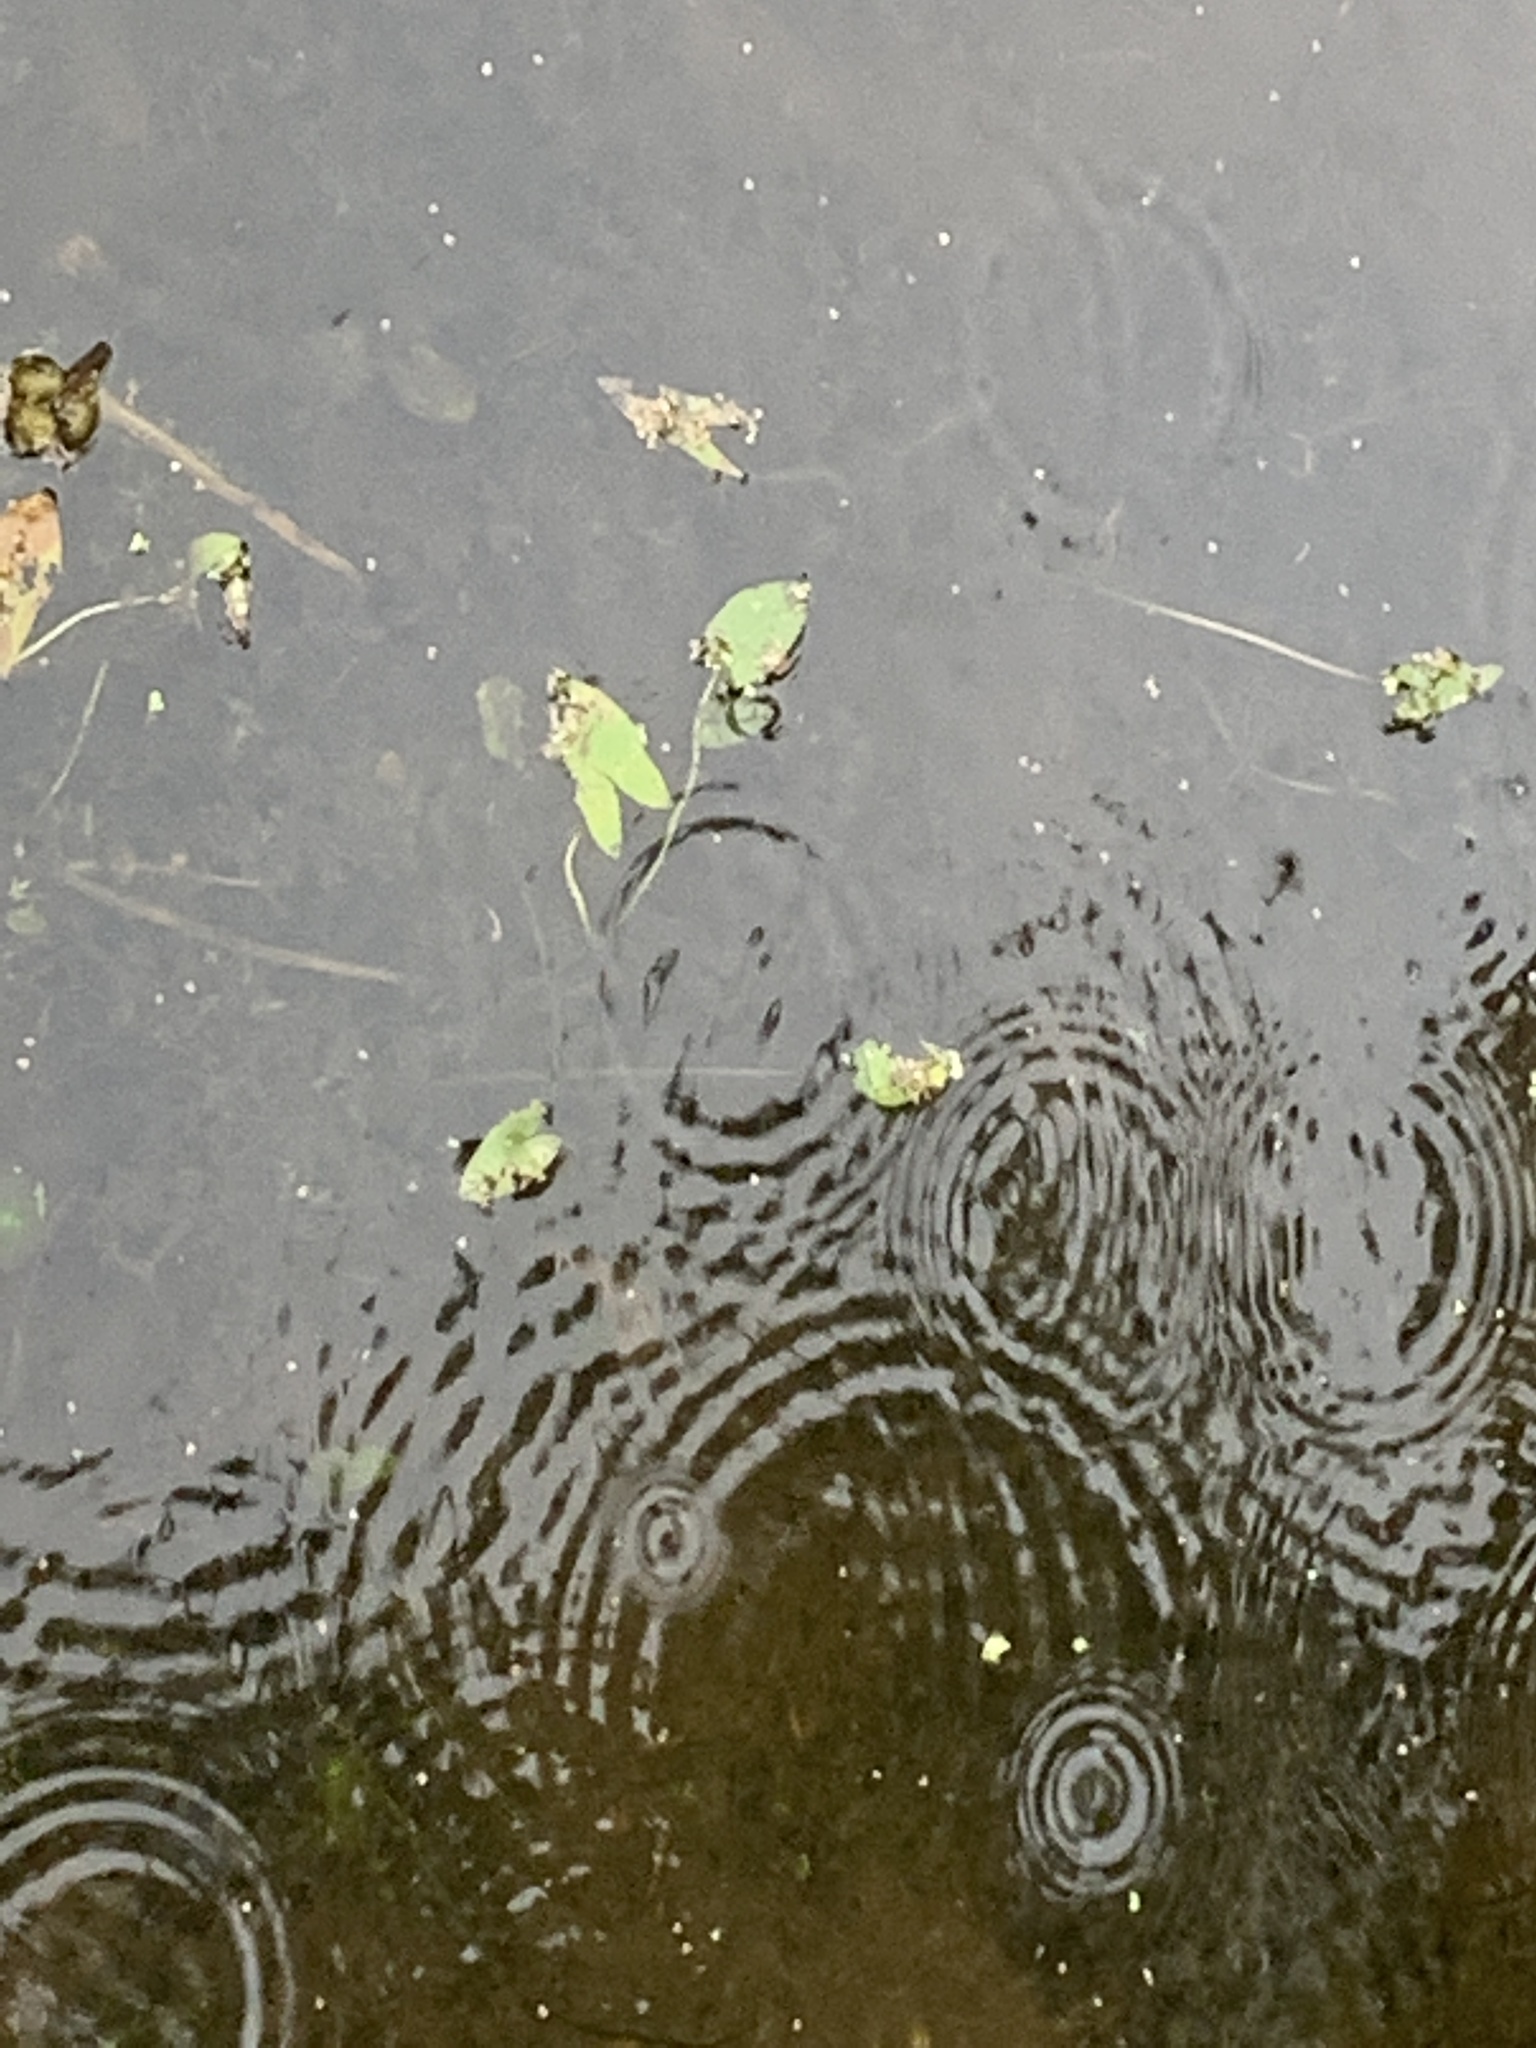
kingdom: Plantae
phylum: Tracheophyta
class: Liliopsida
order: Alismatales
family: Alismataceae
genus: Sagittaria
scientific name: Sagittaria cuneata
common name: Northern arrowhead
